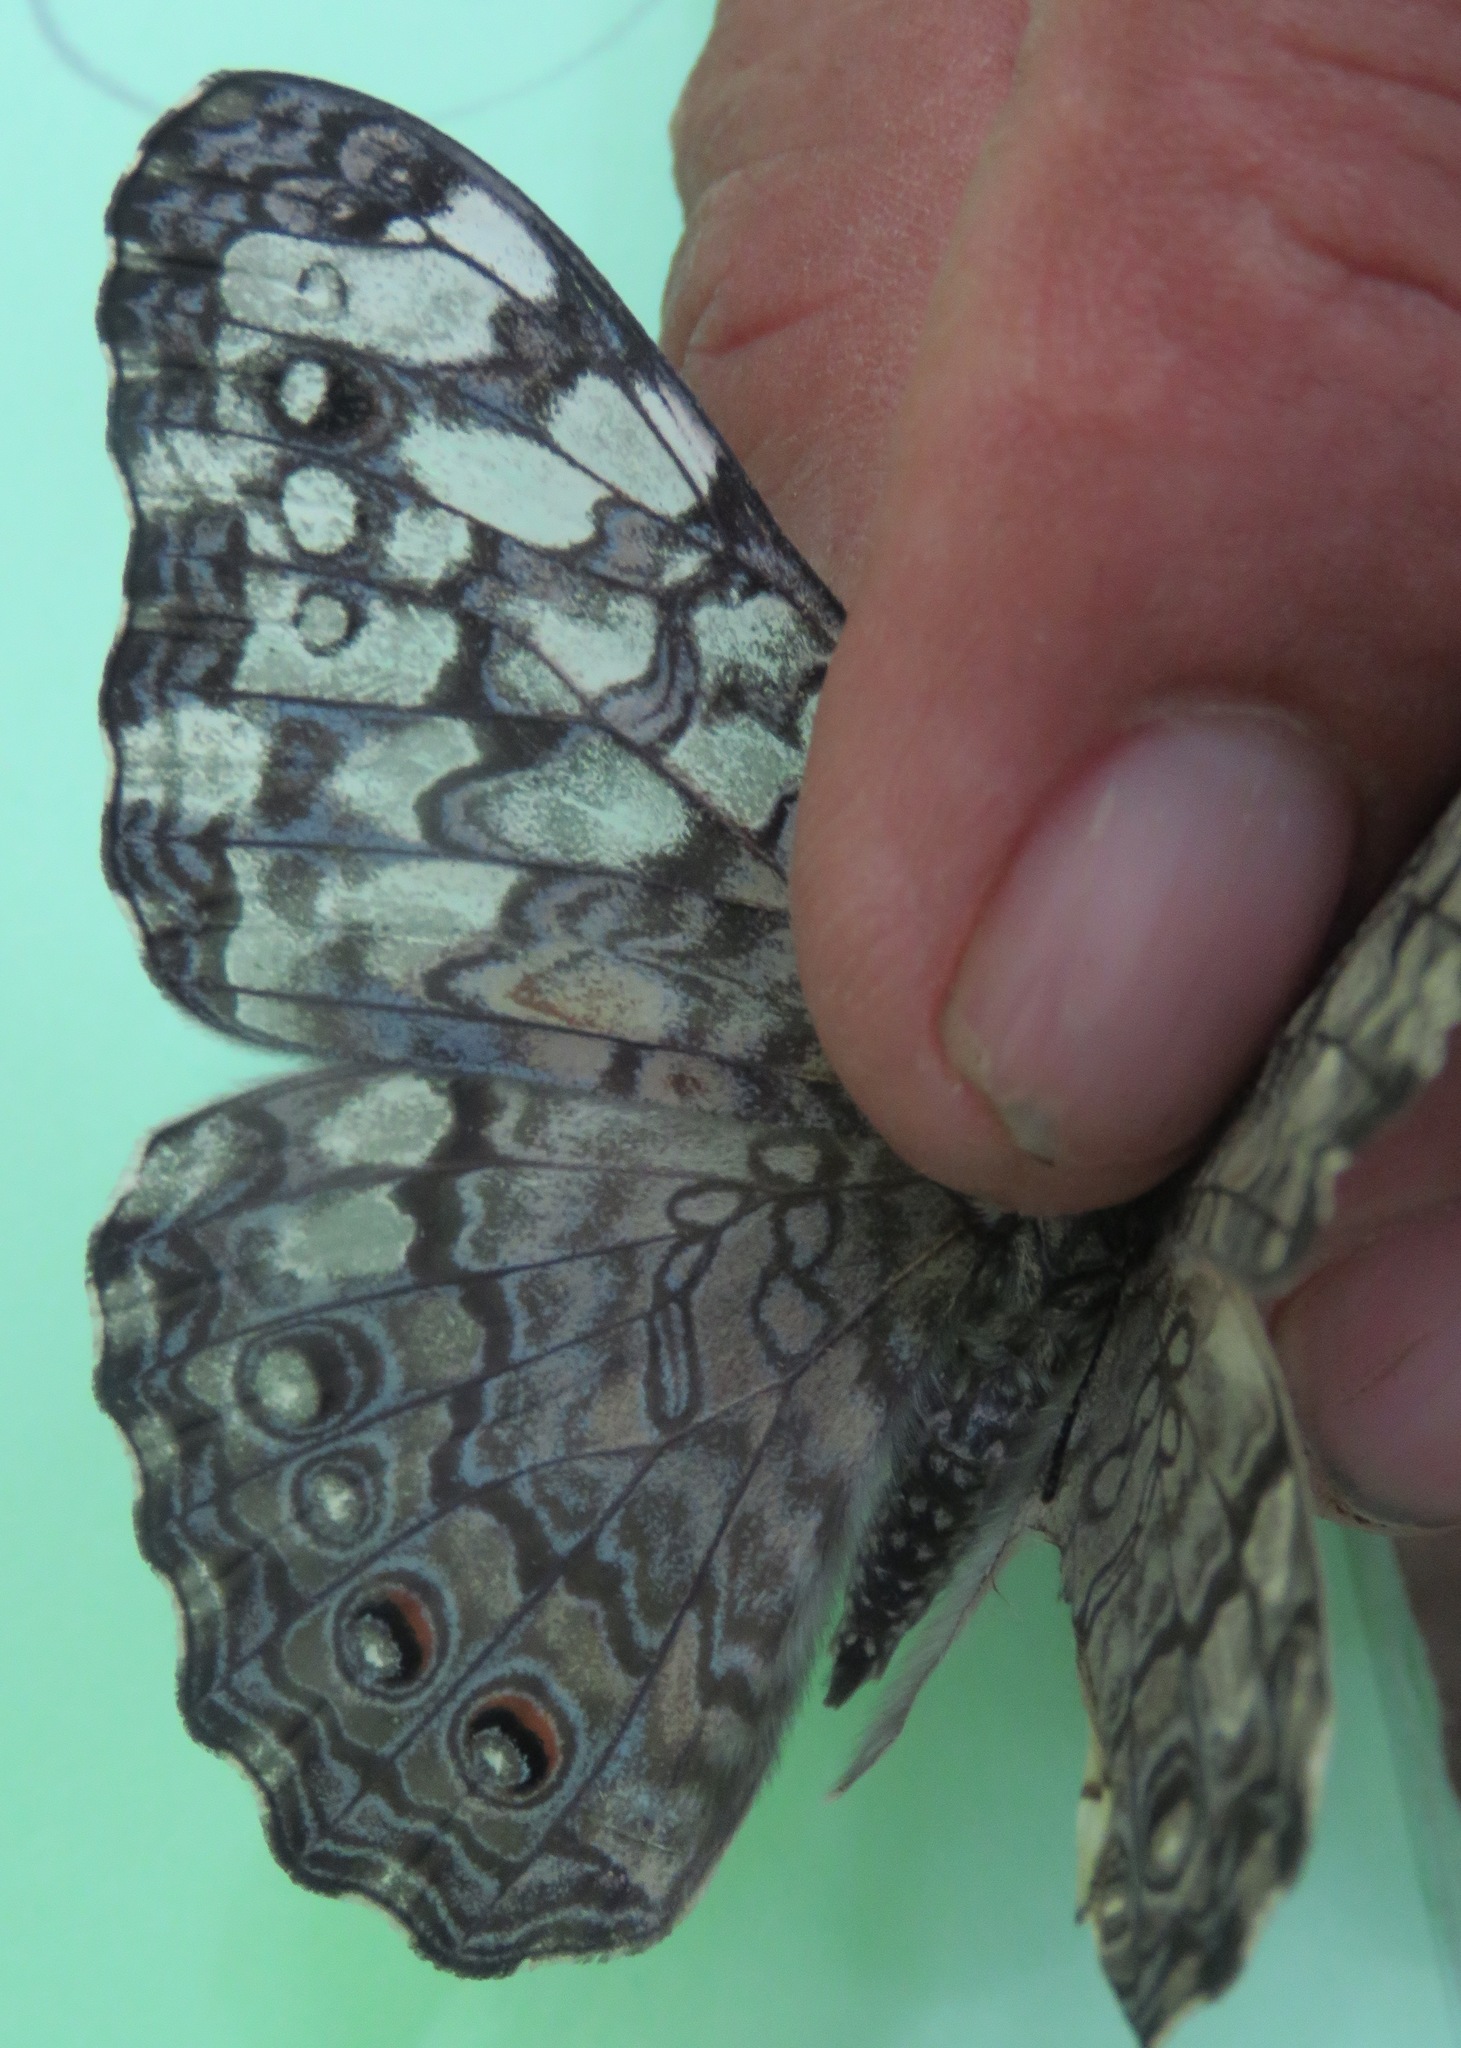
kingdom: Animalia
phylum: Arthropoda
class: Insecta
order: Lepidoptera
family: Nymphalidae
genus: Hamadryas
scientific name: Hamadryas februa
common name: Gray cracker
